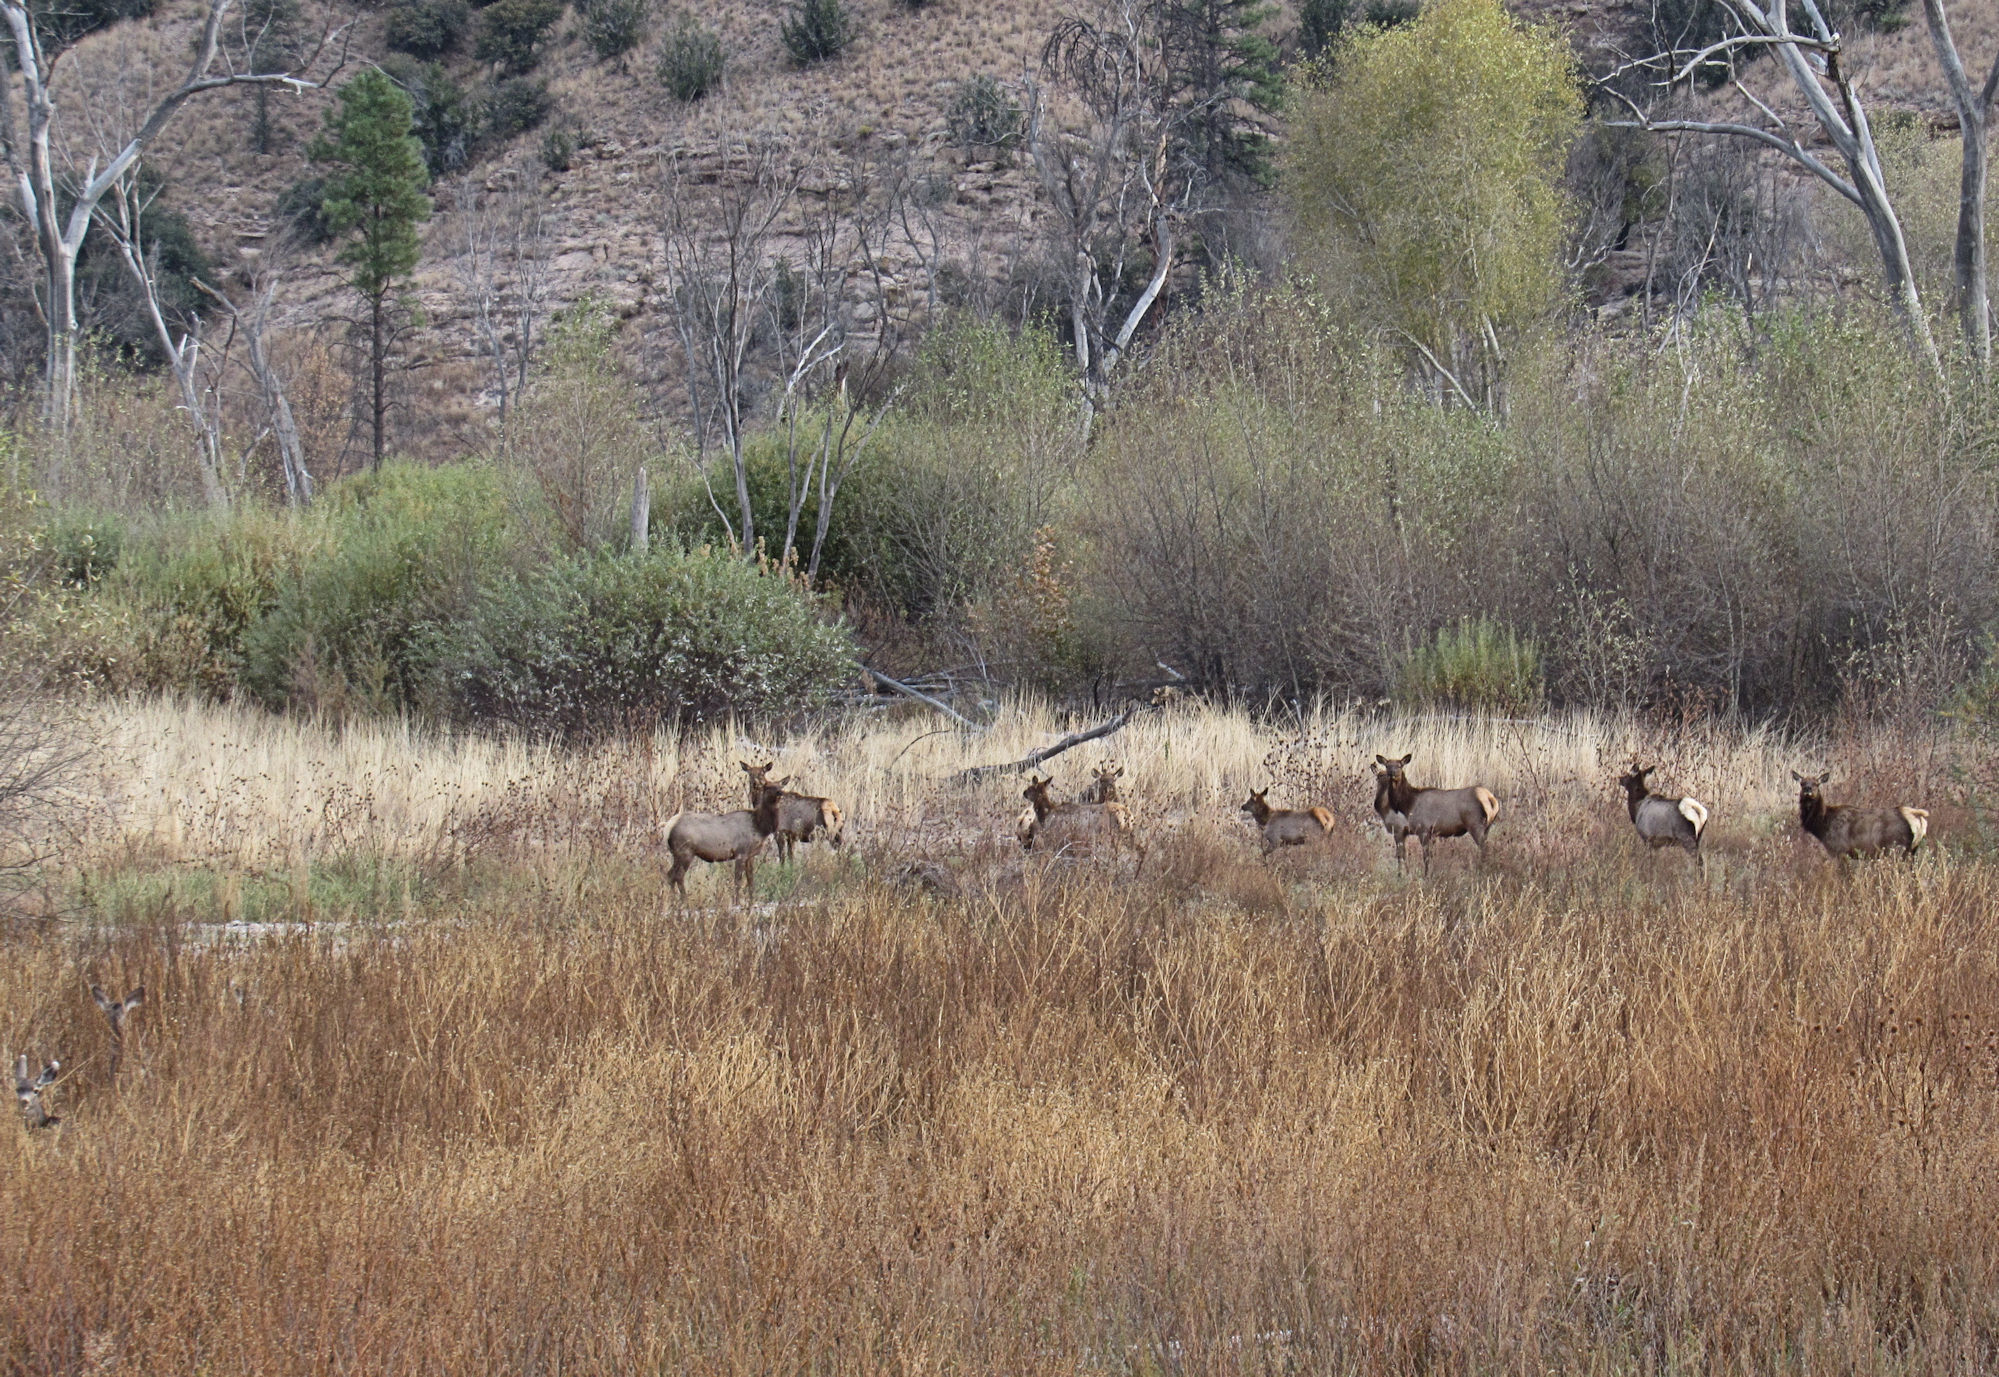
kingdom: Animalia
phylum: Chordata
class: Mammalia
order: Artiodactyla
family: Cervidae
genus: Cervus
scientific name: Cervus elaphus
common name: Red deer
